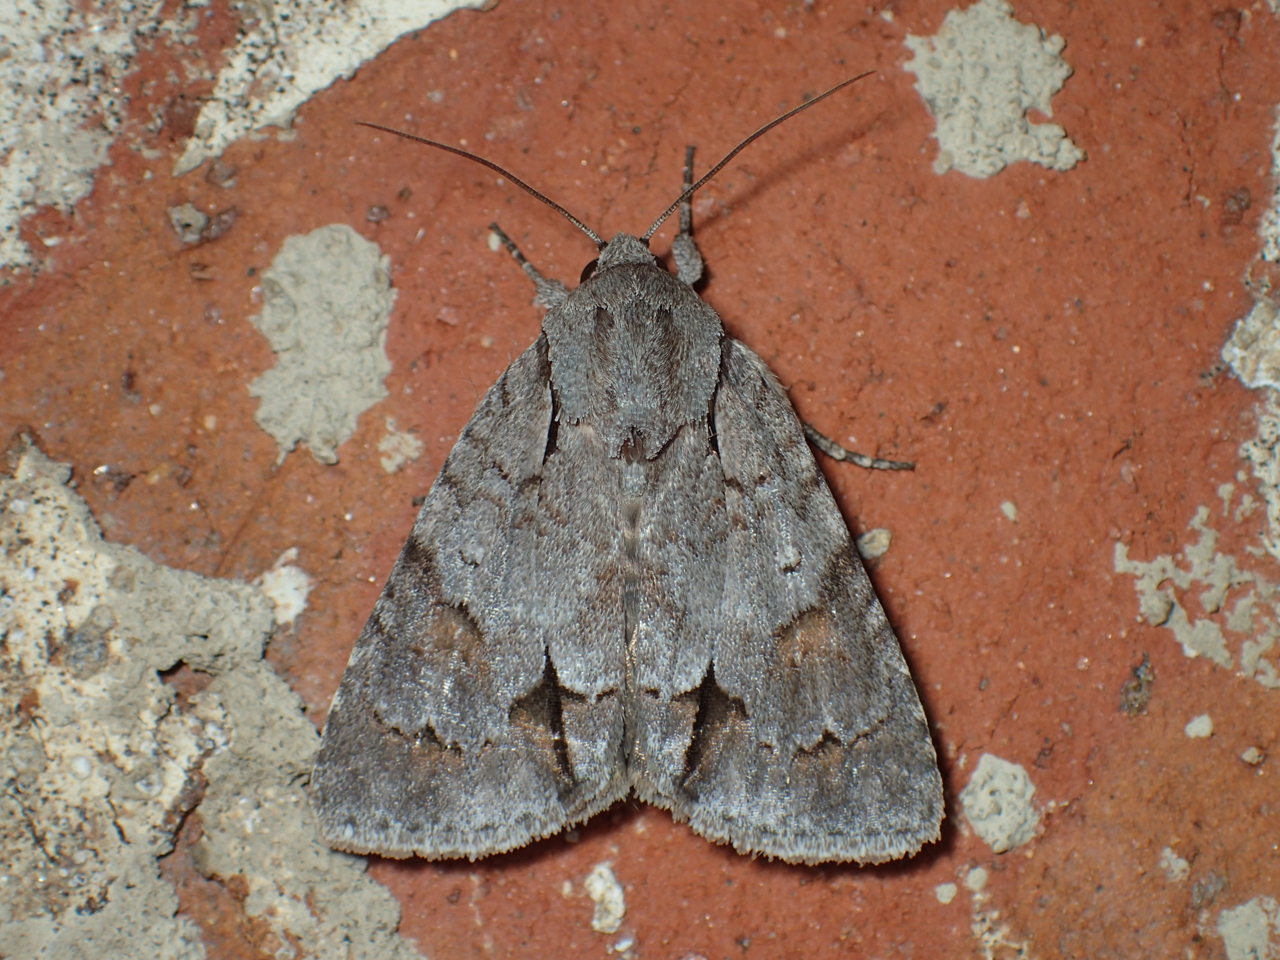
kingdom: Animalia
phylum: Arthropoda
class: Insecta
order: Lepidoptera
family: Noctuidae
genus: Acronicta
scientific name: Acronicta tritona
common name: Triton dagger
